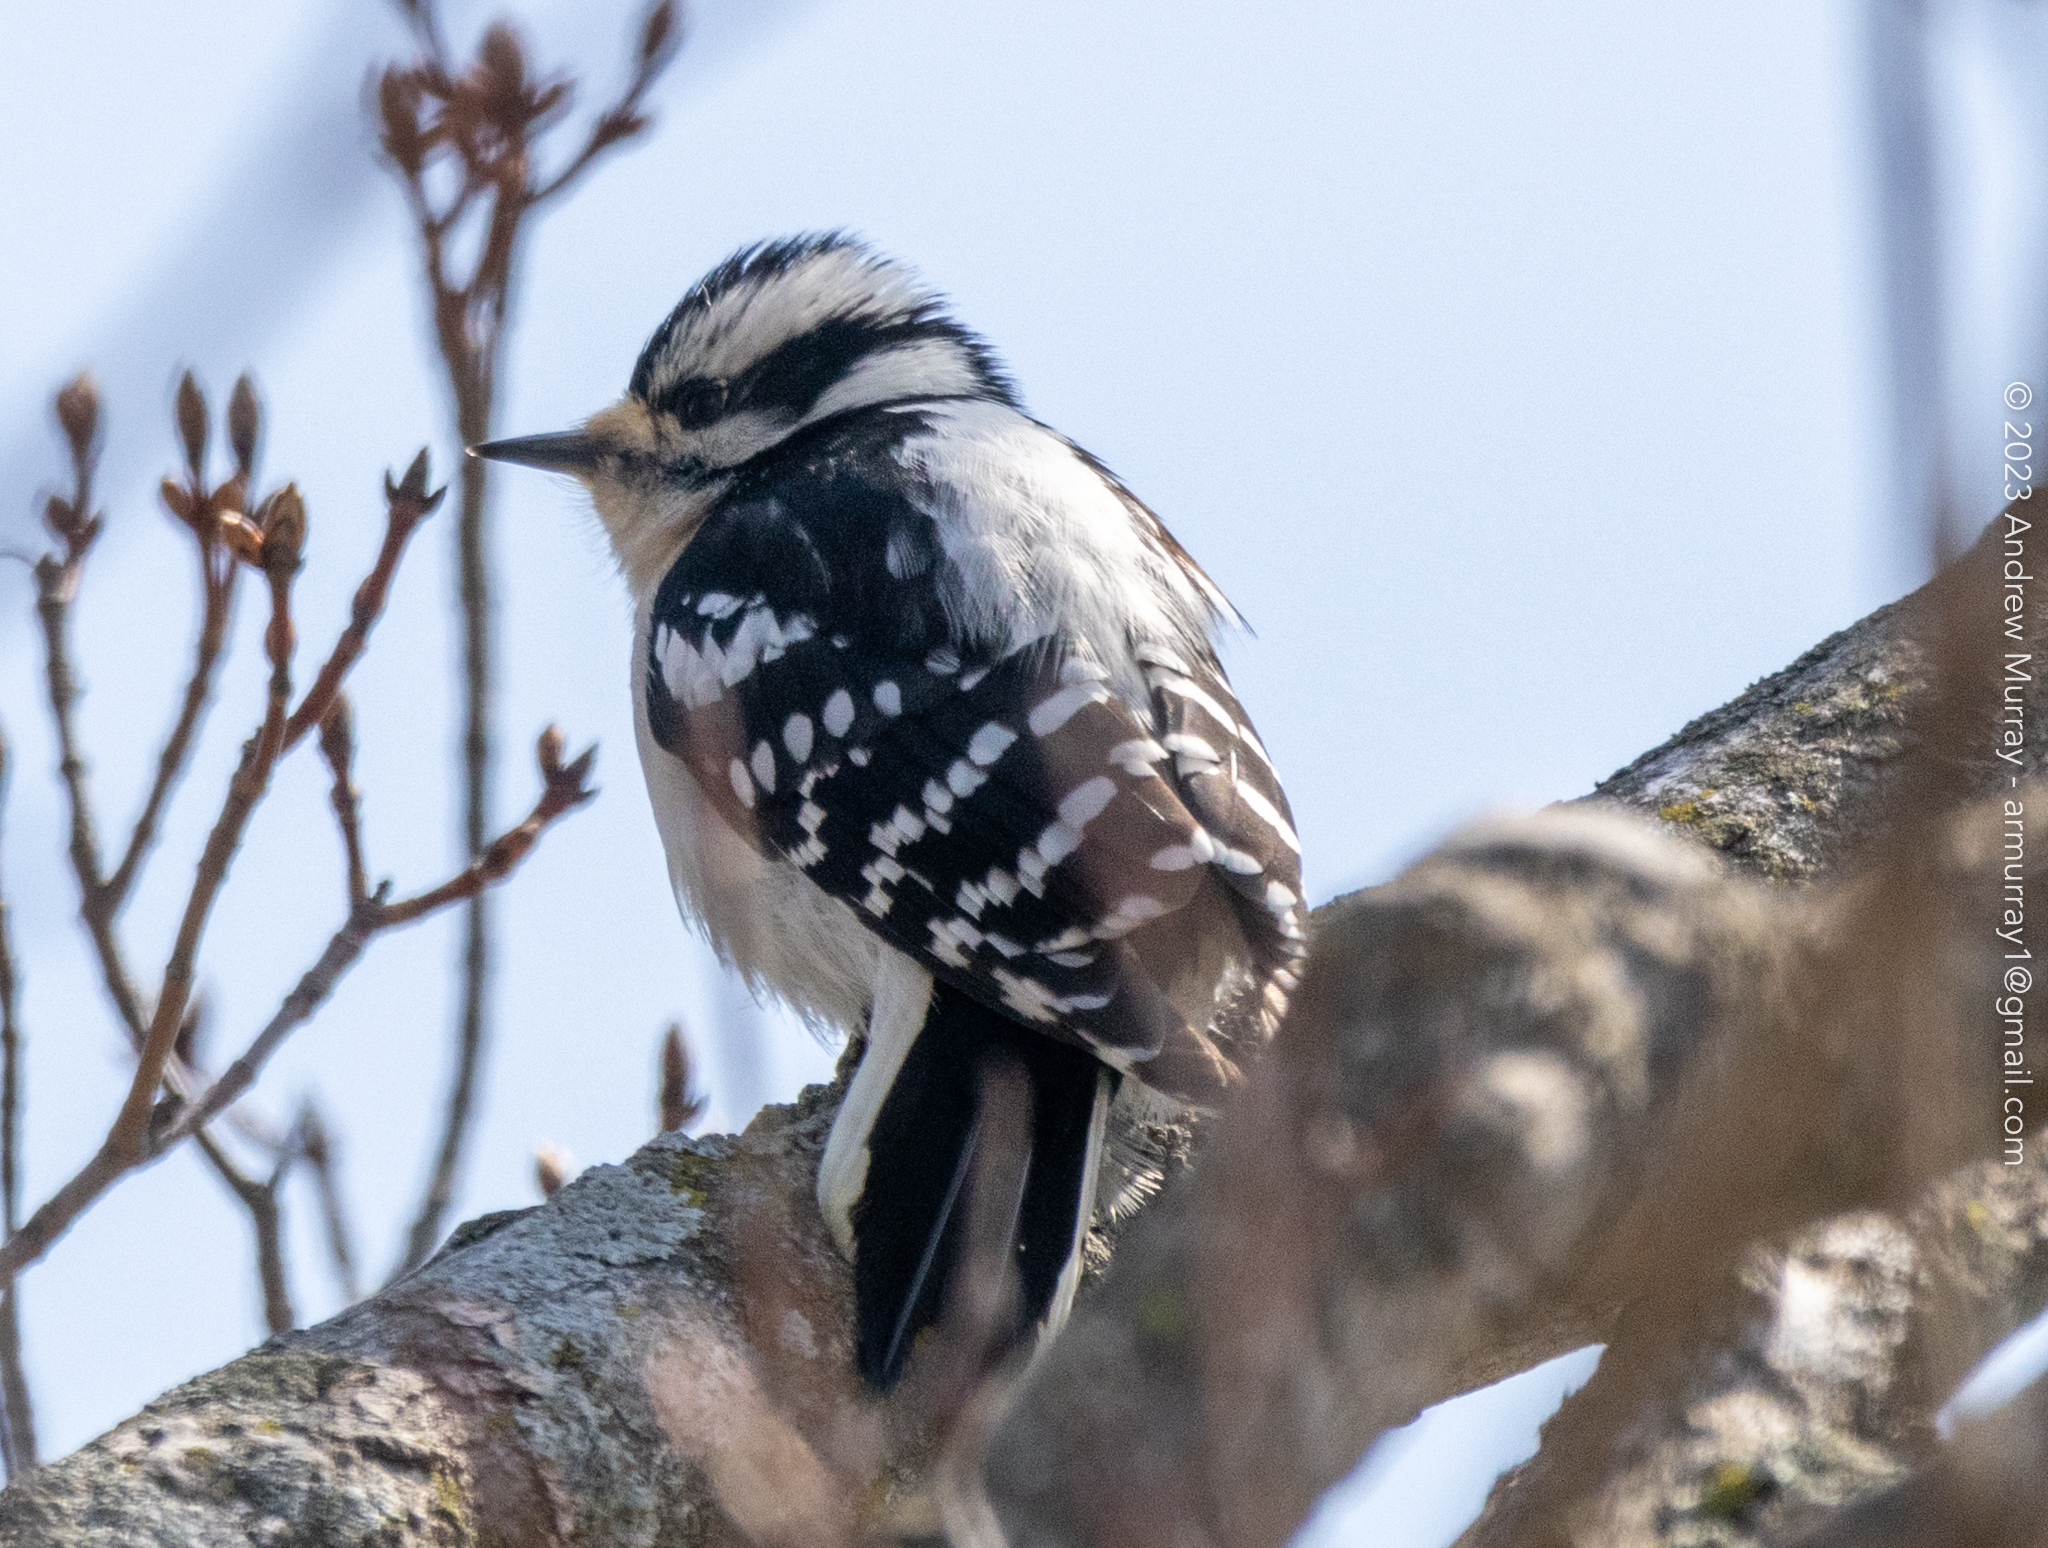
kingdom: Animalia
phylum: Chordata
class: Aves
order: Piciformes
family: Picidae
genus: Dryobates
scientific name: Dryobates pubescens
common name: Downy woodpecker
